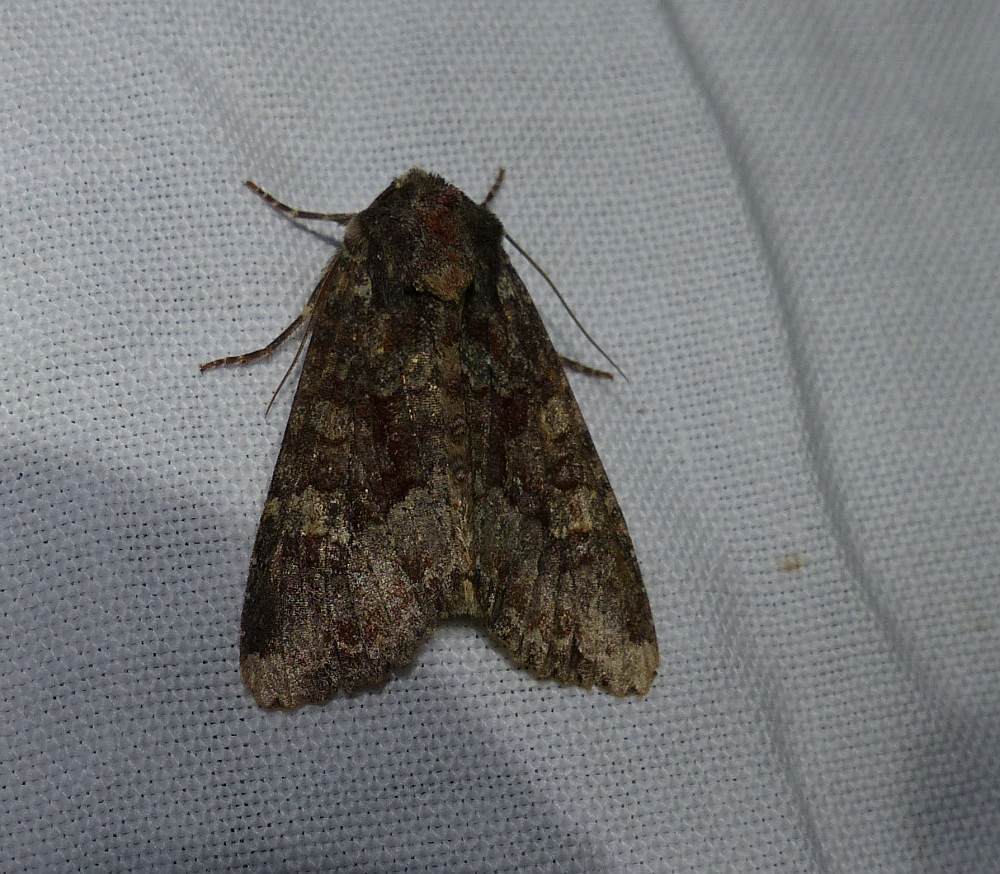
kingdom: Animalia
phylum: Arthropoda
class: Insecta
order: Lepidoptera
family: Noctuidae
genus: Apamea
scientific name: Apamea amputatrix
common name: Yellow-headed cutworm moth
